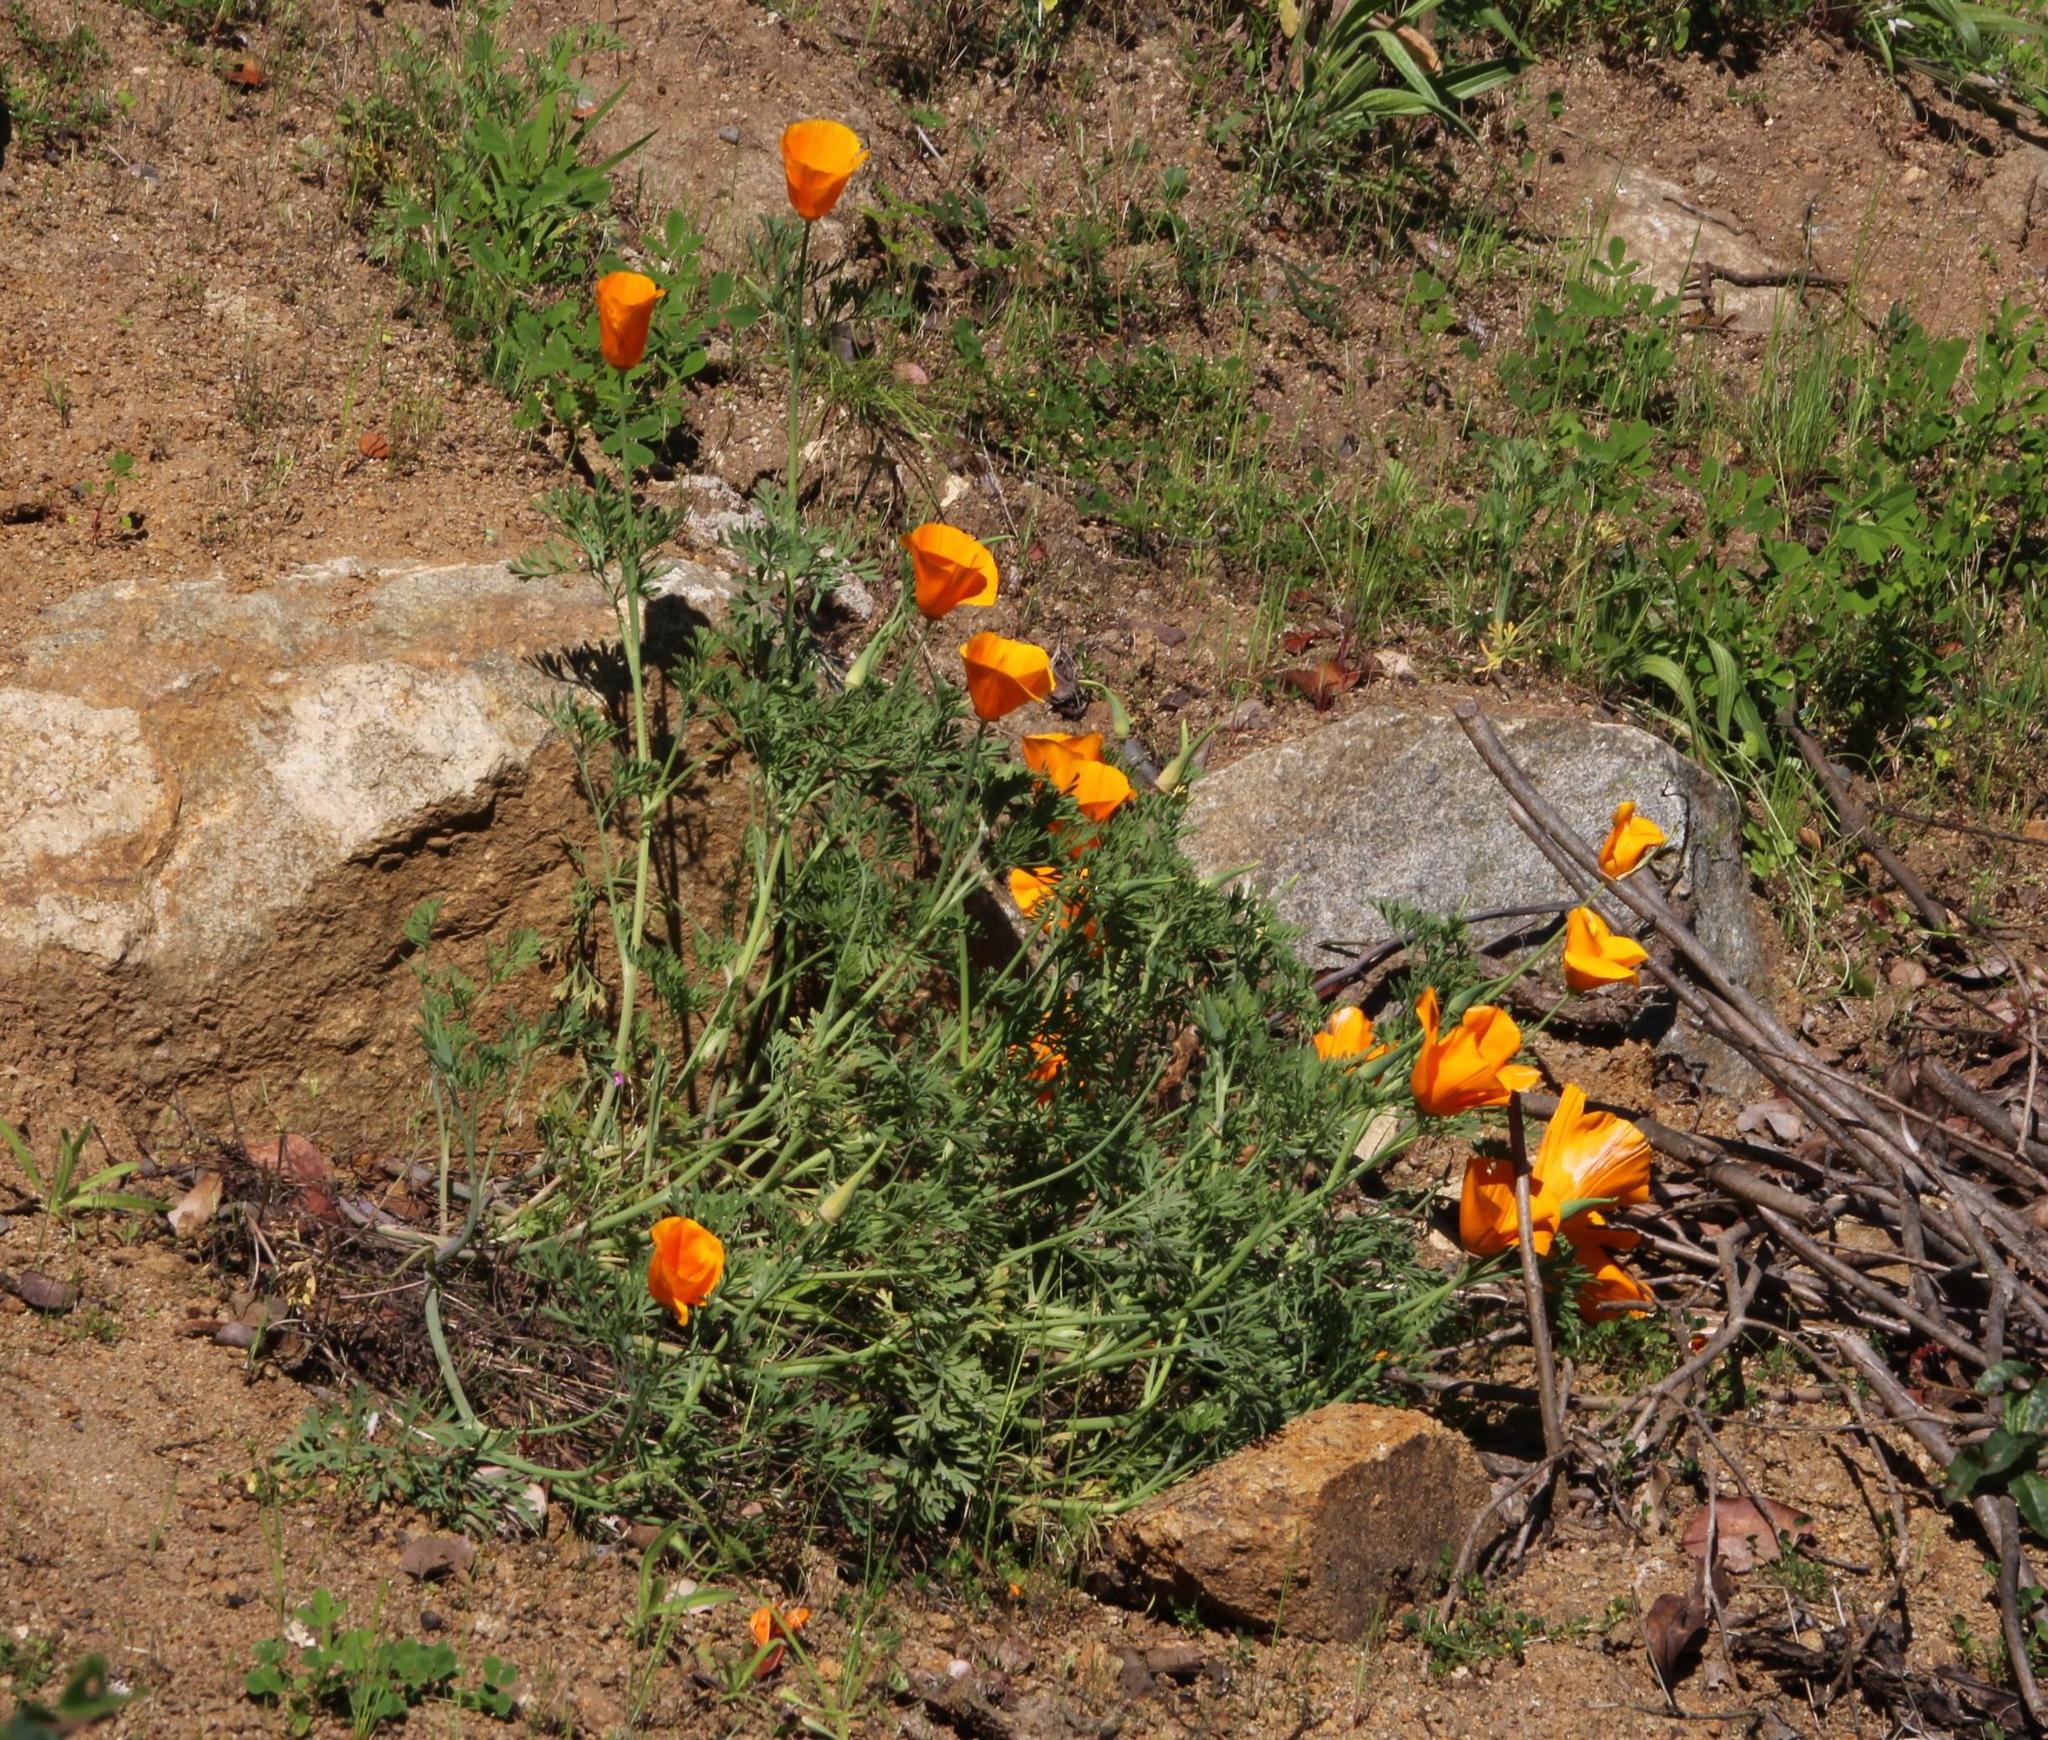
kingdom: Plantae
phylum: Tracheophyta
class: Magnoliopsida
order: Ranunculales
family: Papaveraceae
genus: Eschscholzia
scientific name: Eschscholzia californica
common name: California poppy
